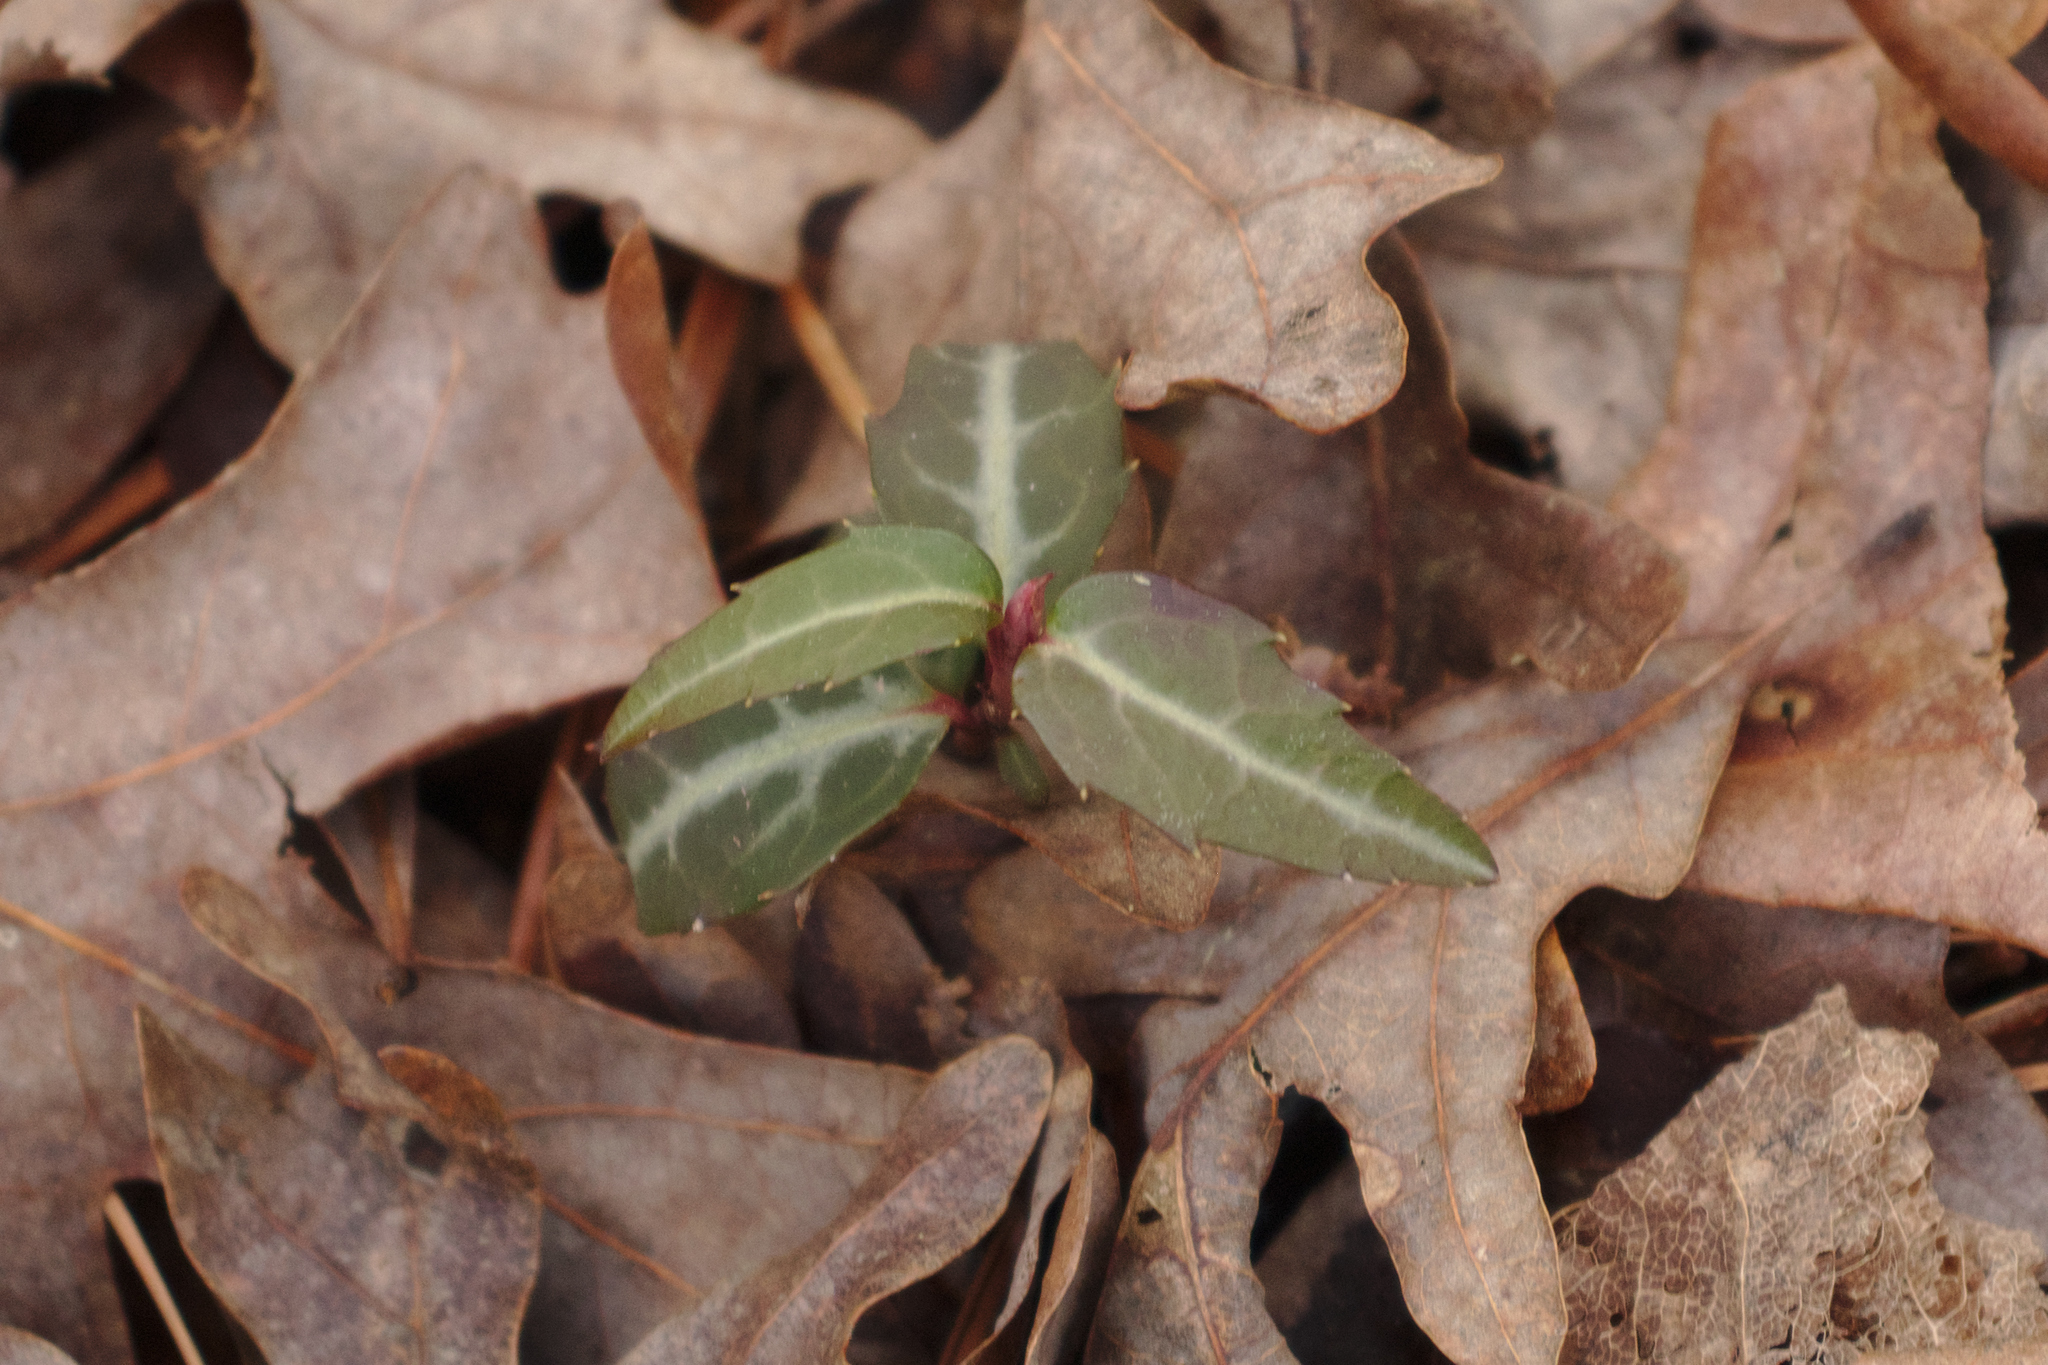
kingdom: Plantae
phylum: Tracheophyta
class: Magnoliopsida
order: Ericales
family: Ericaceae
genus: Chimaphila
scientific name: Chimaphila maculata
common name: Spotted pipsissewa
